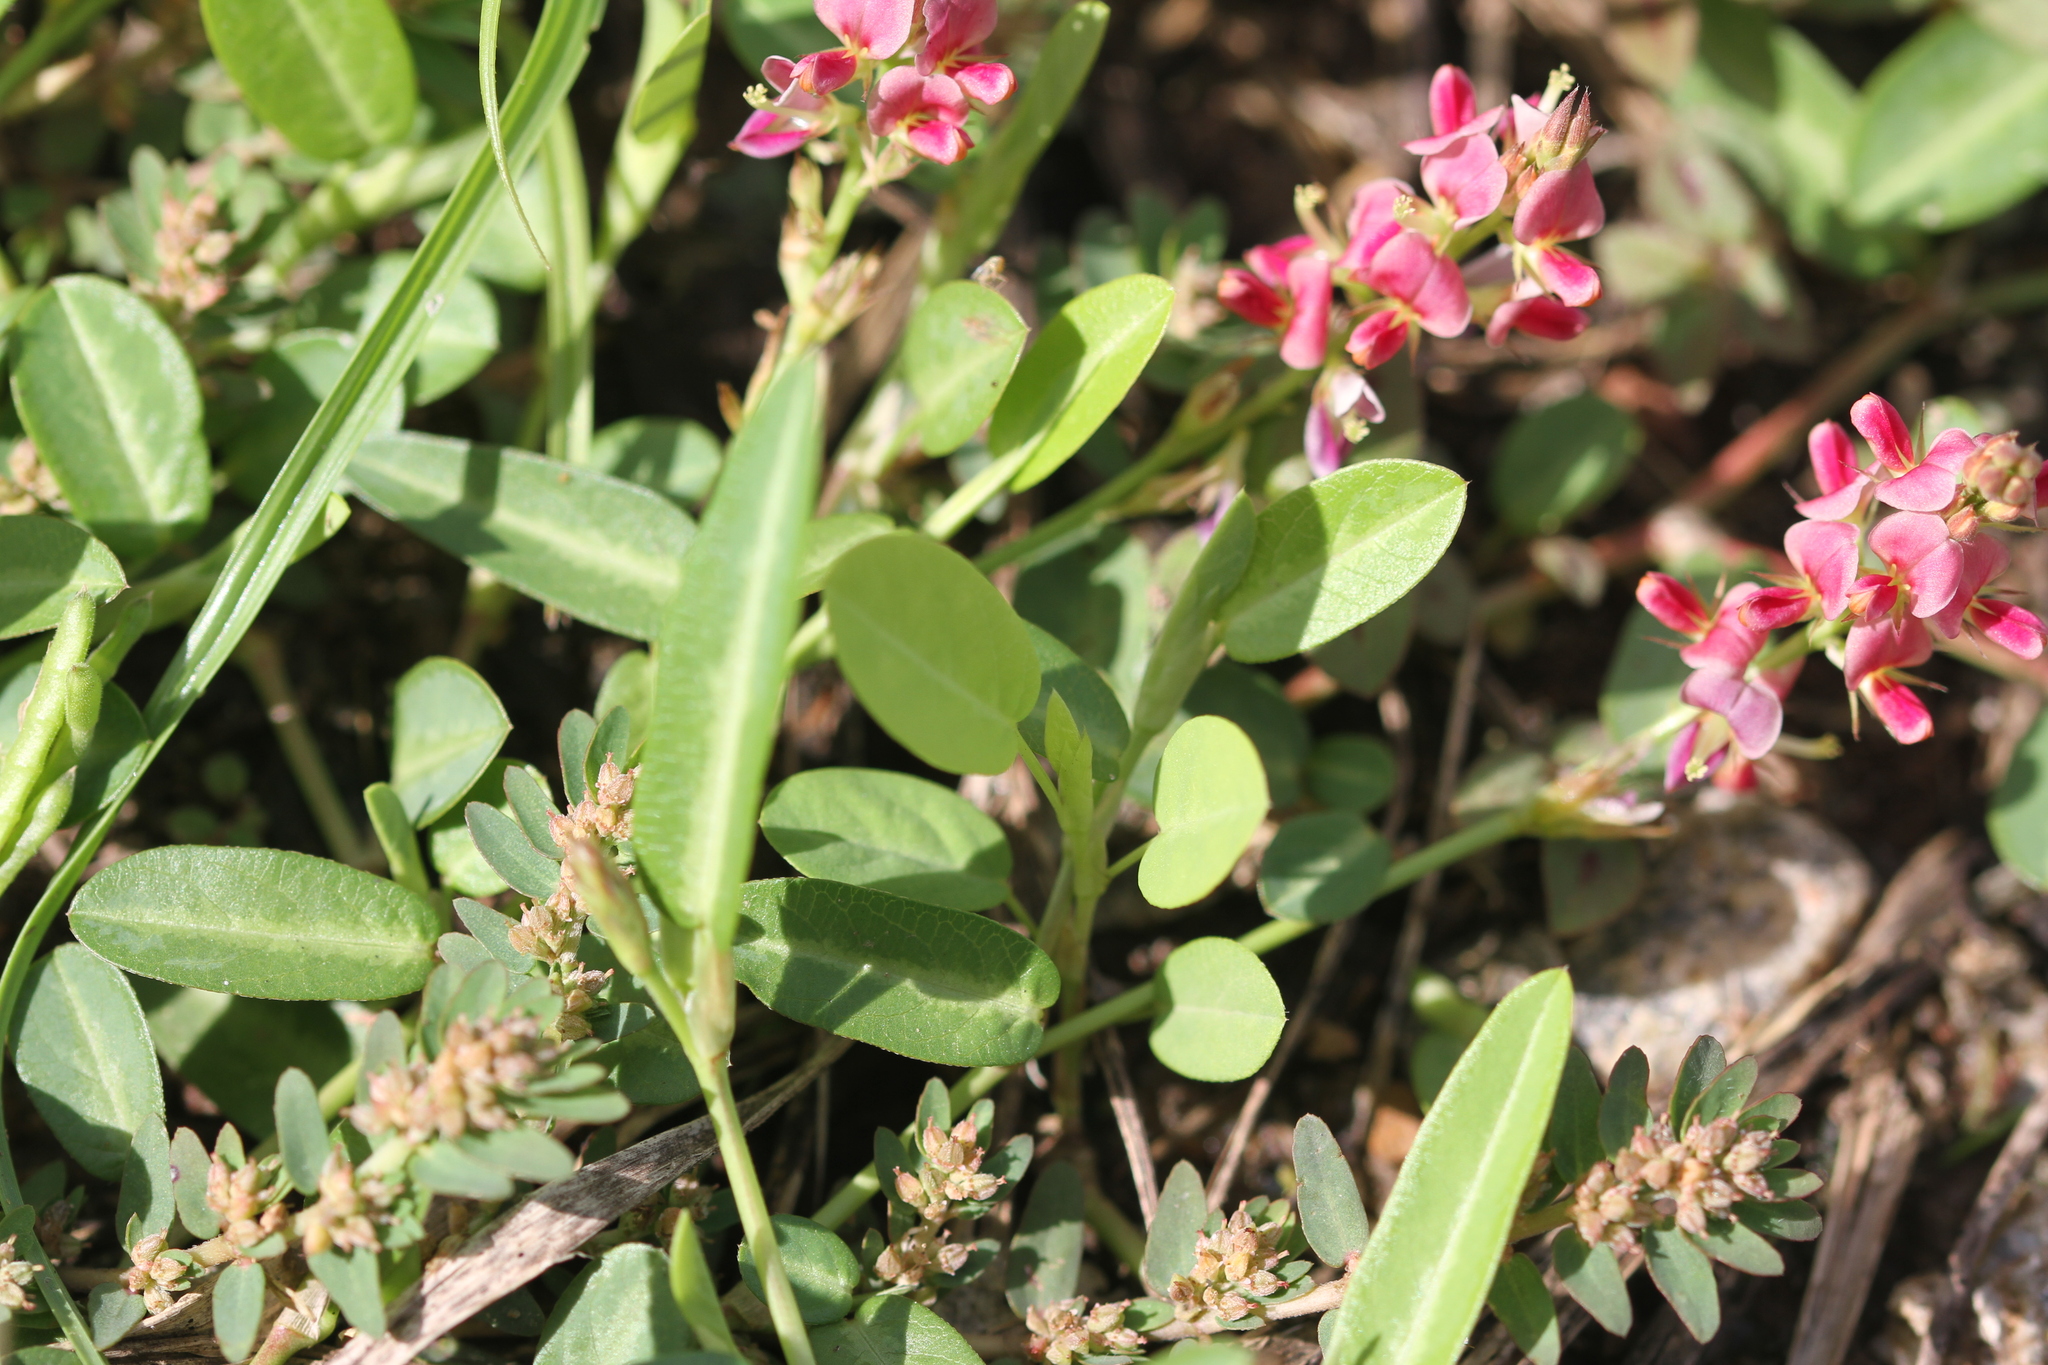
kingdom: Plantae
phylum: Tracheophyta
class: Magnoliopsida
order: Fabales
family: Fabaceae
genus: Alysicarpus
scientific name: Alysicarpus vaginalis
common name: White moneywort
